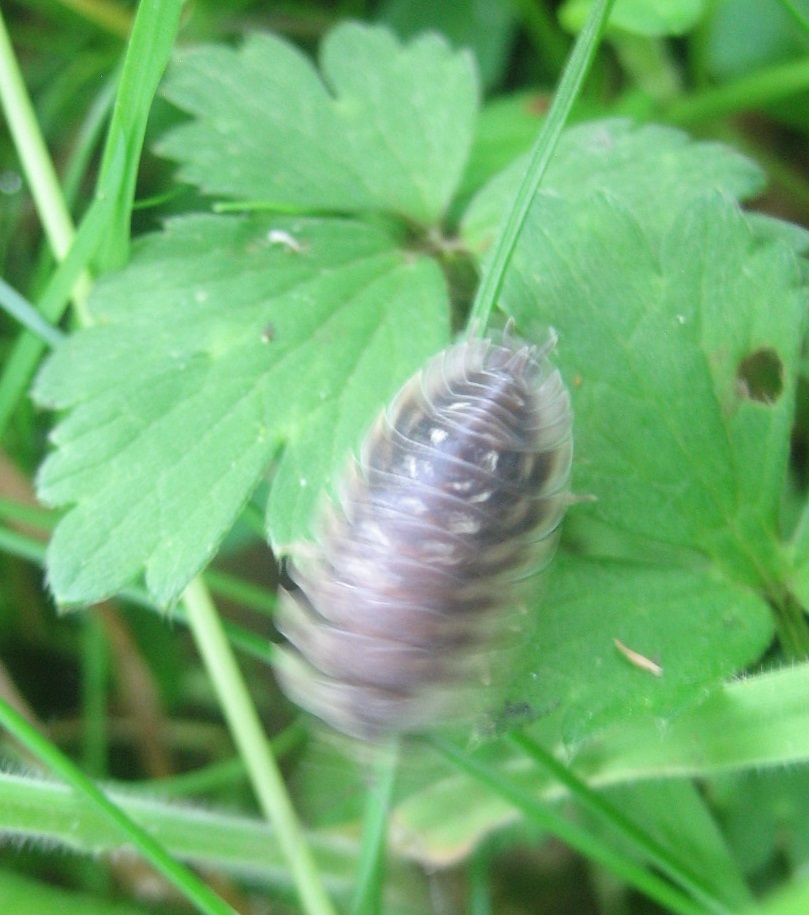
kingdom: Animalia
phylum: Arthropoda
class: Malacostraca
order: Isopoda
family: Oniscidae
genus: Oniscus
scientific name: Oniscus asellus
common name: Common shiny woodlouse
